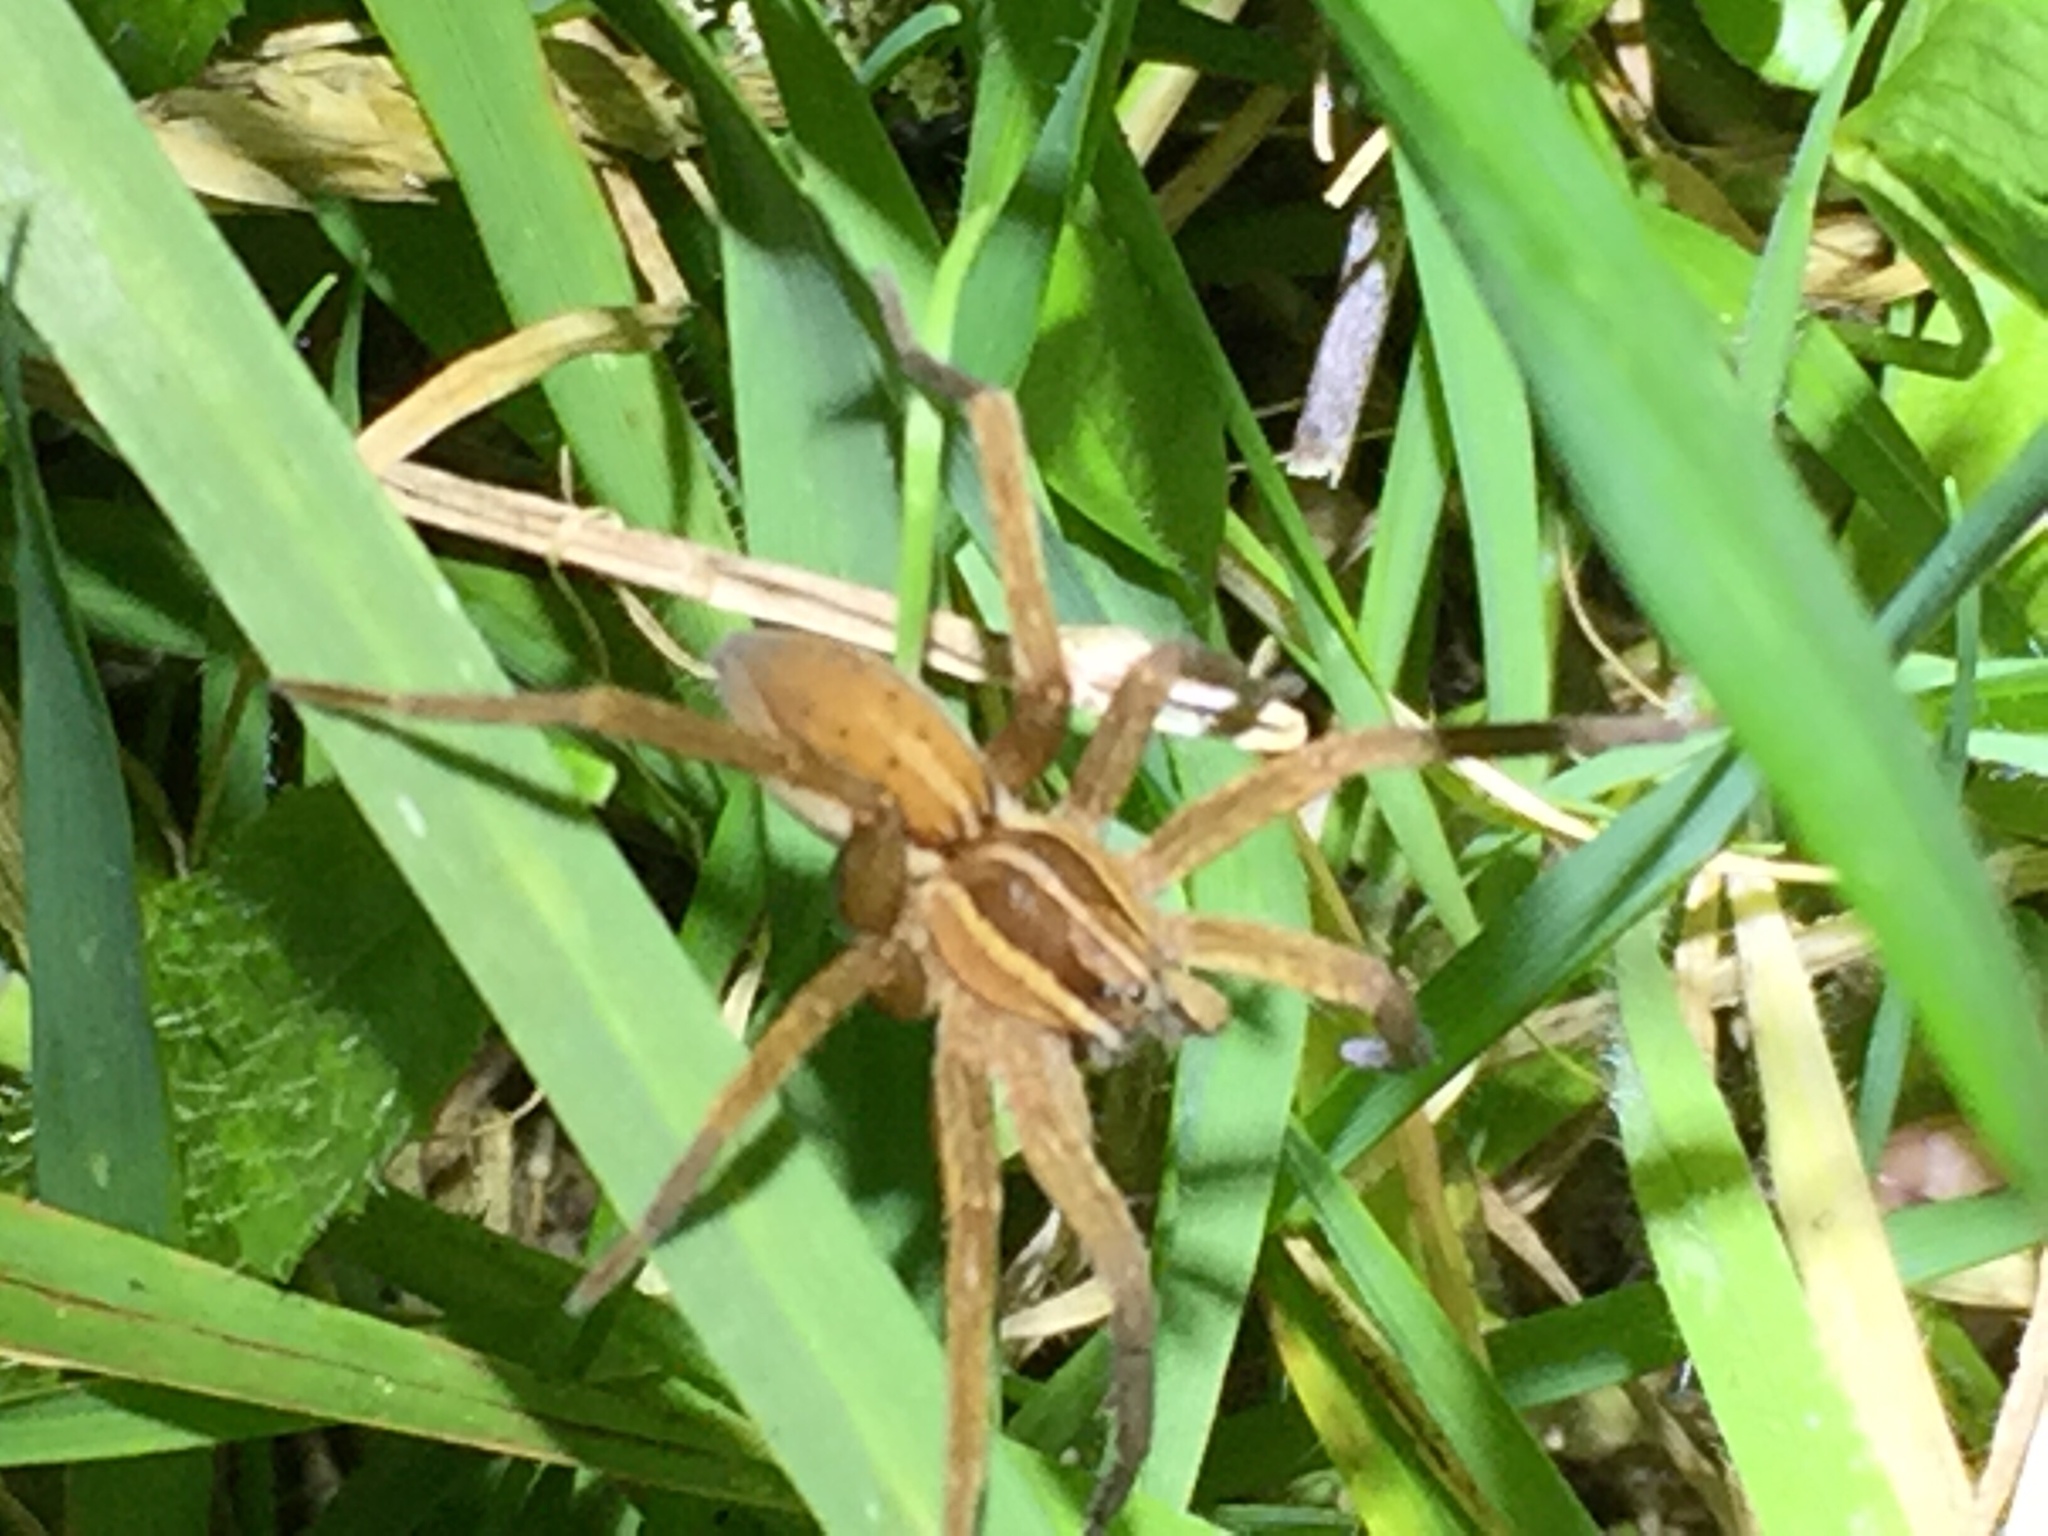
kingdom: Animalia
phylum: Arthropoda
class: Arachnida
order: Araneae
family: Pisauridae
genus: Dolomedes
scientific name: Dolomedes minor
